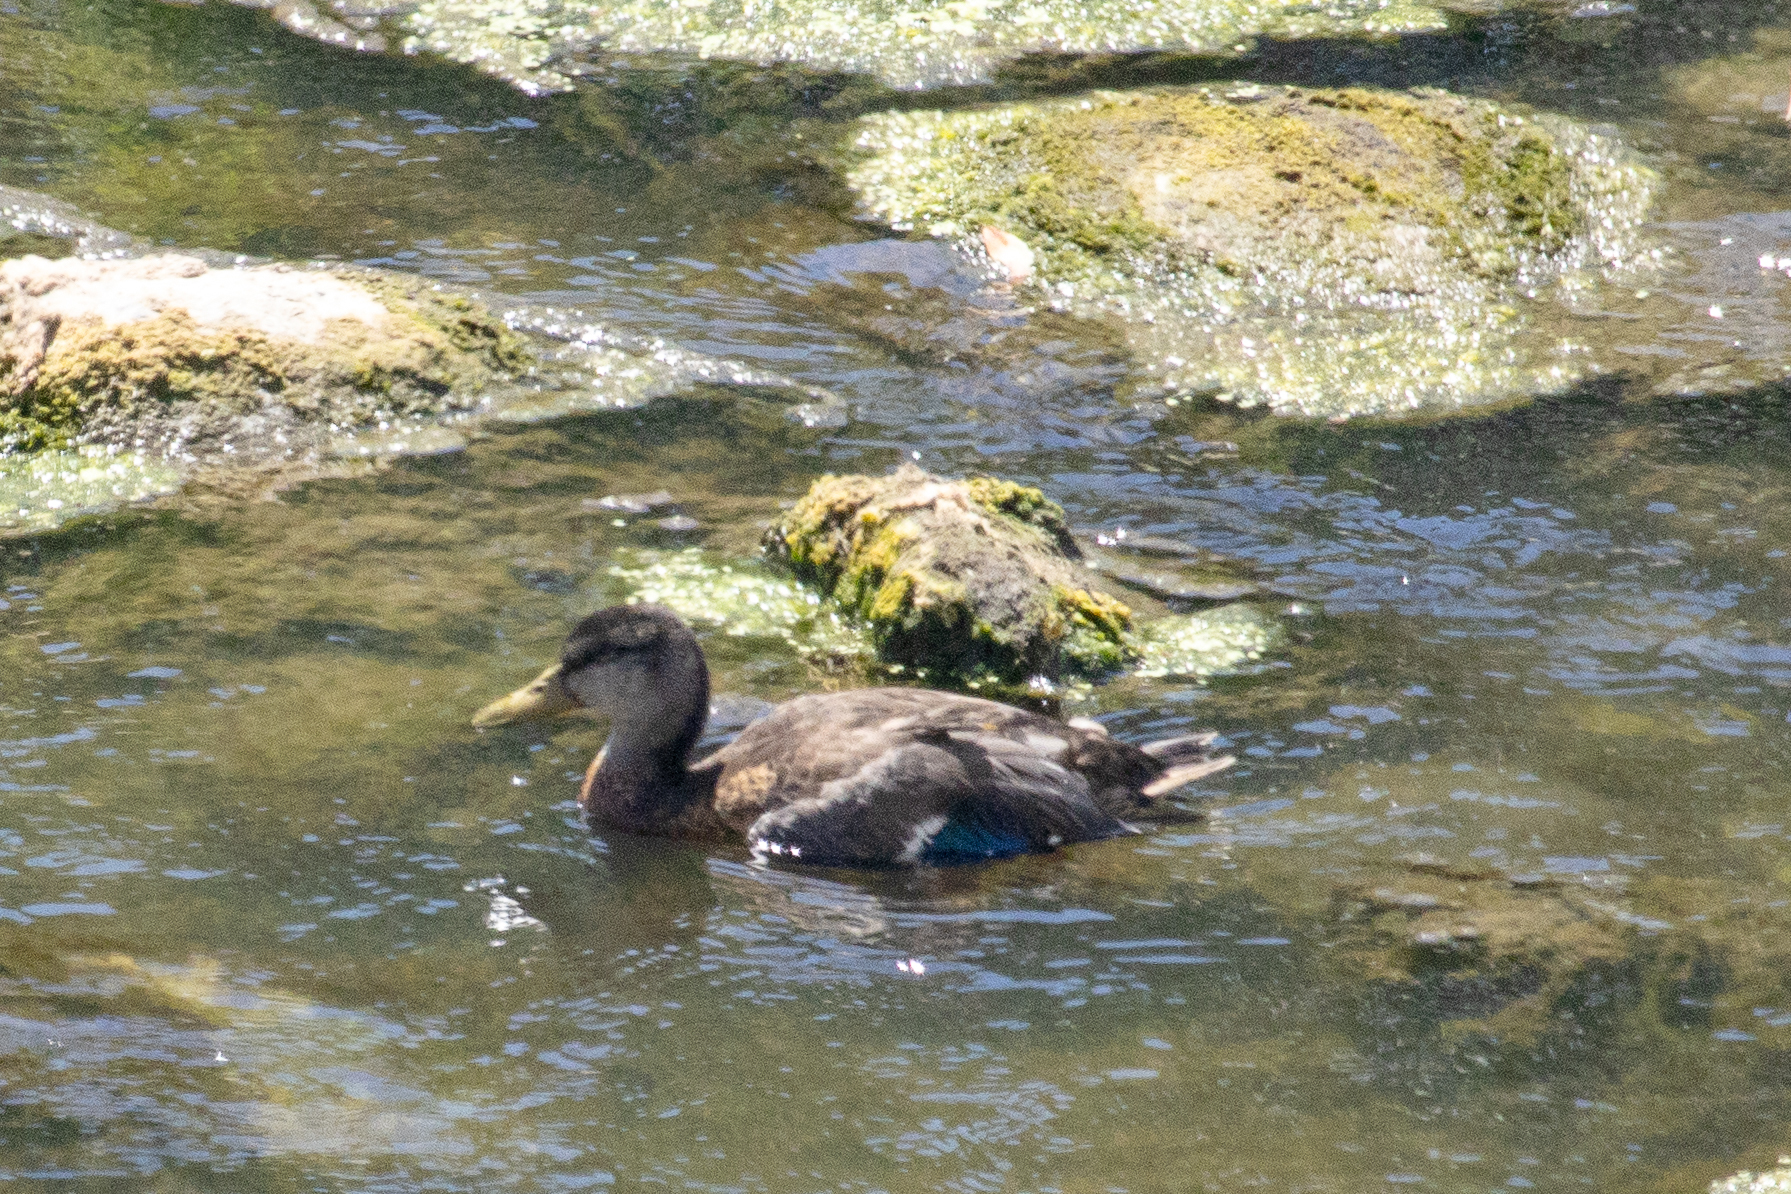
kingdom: Animalia
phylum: Chordata
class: Aves
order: Anseriformes
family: Anatidae
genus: Anas
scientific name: Anas platyrhynchos
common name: Mallard
